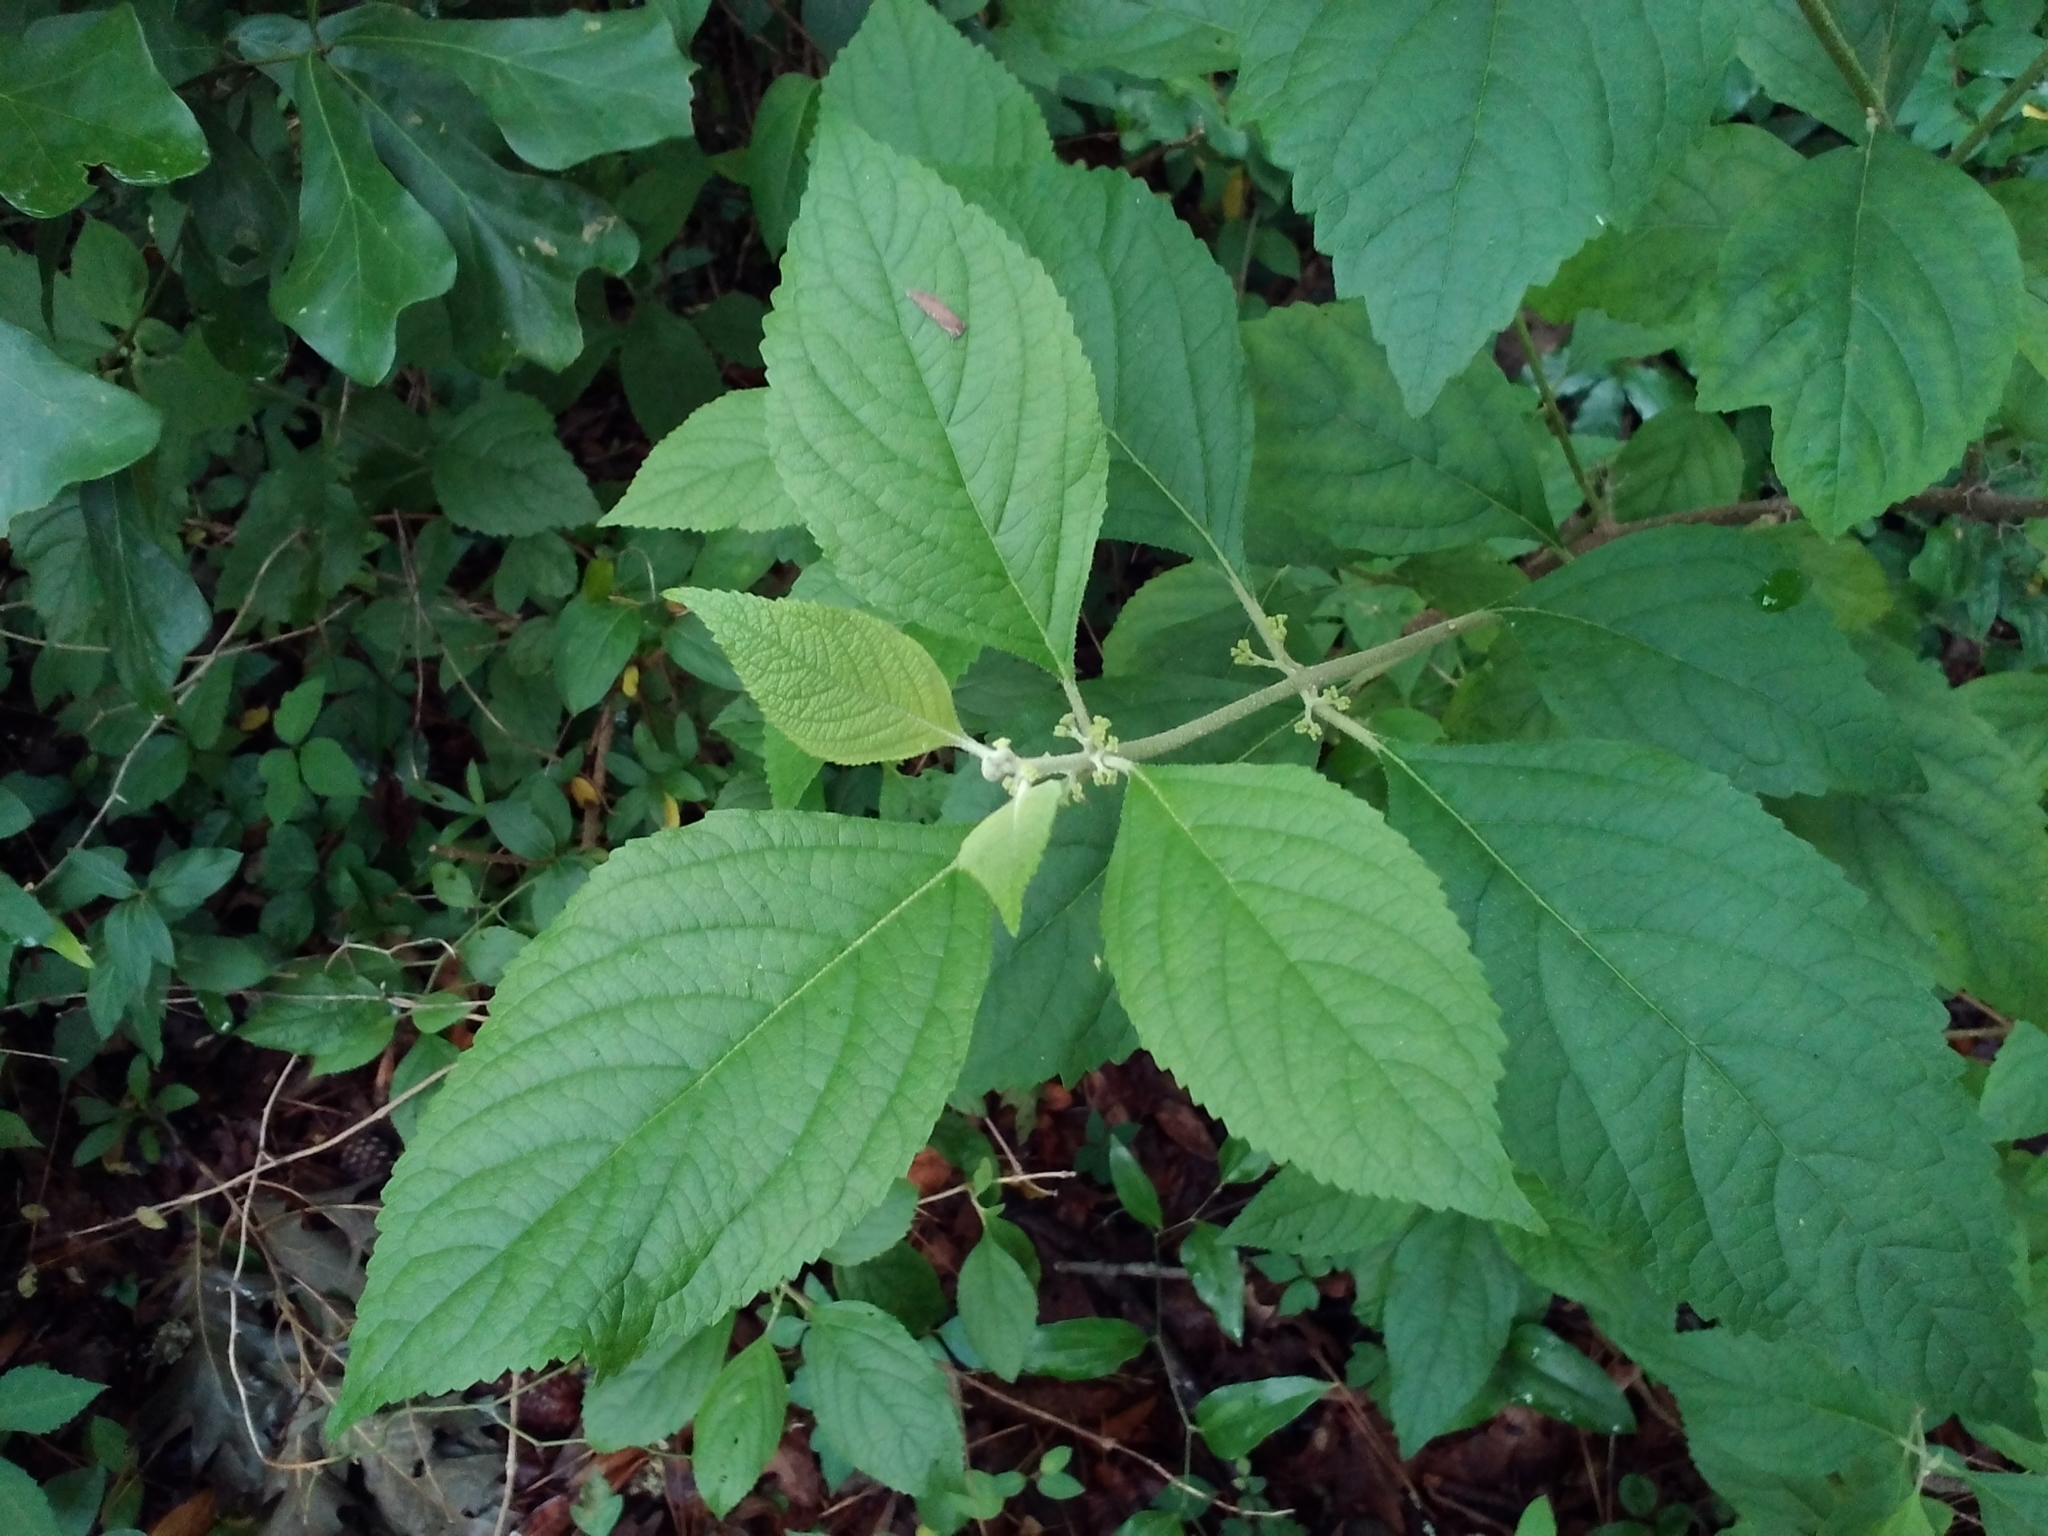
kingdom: Plantae
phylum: Tracheophyta
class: Magnoliopsida
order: Lamiales
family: Lamiaceae
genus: Callicarpa
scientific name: Callicarpa americana
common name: American beautyberry
